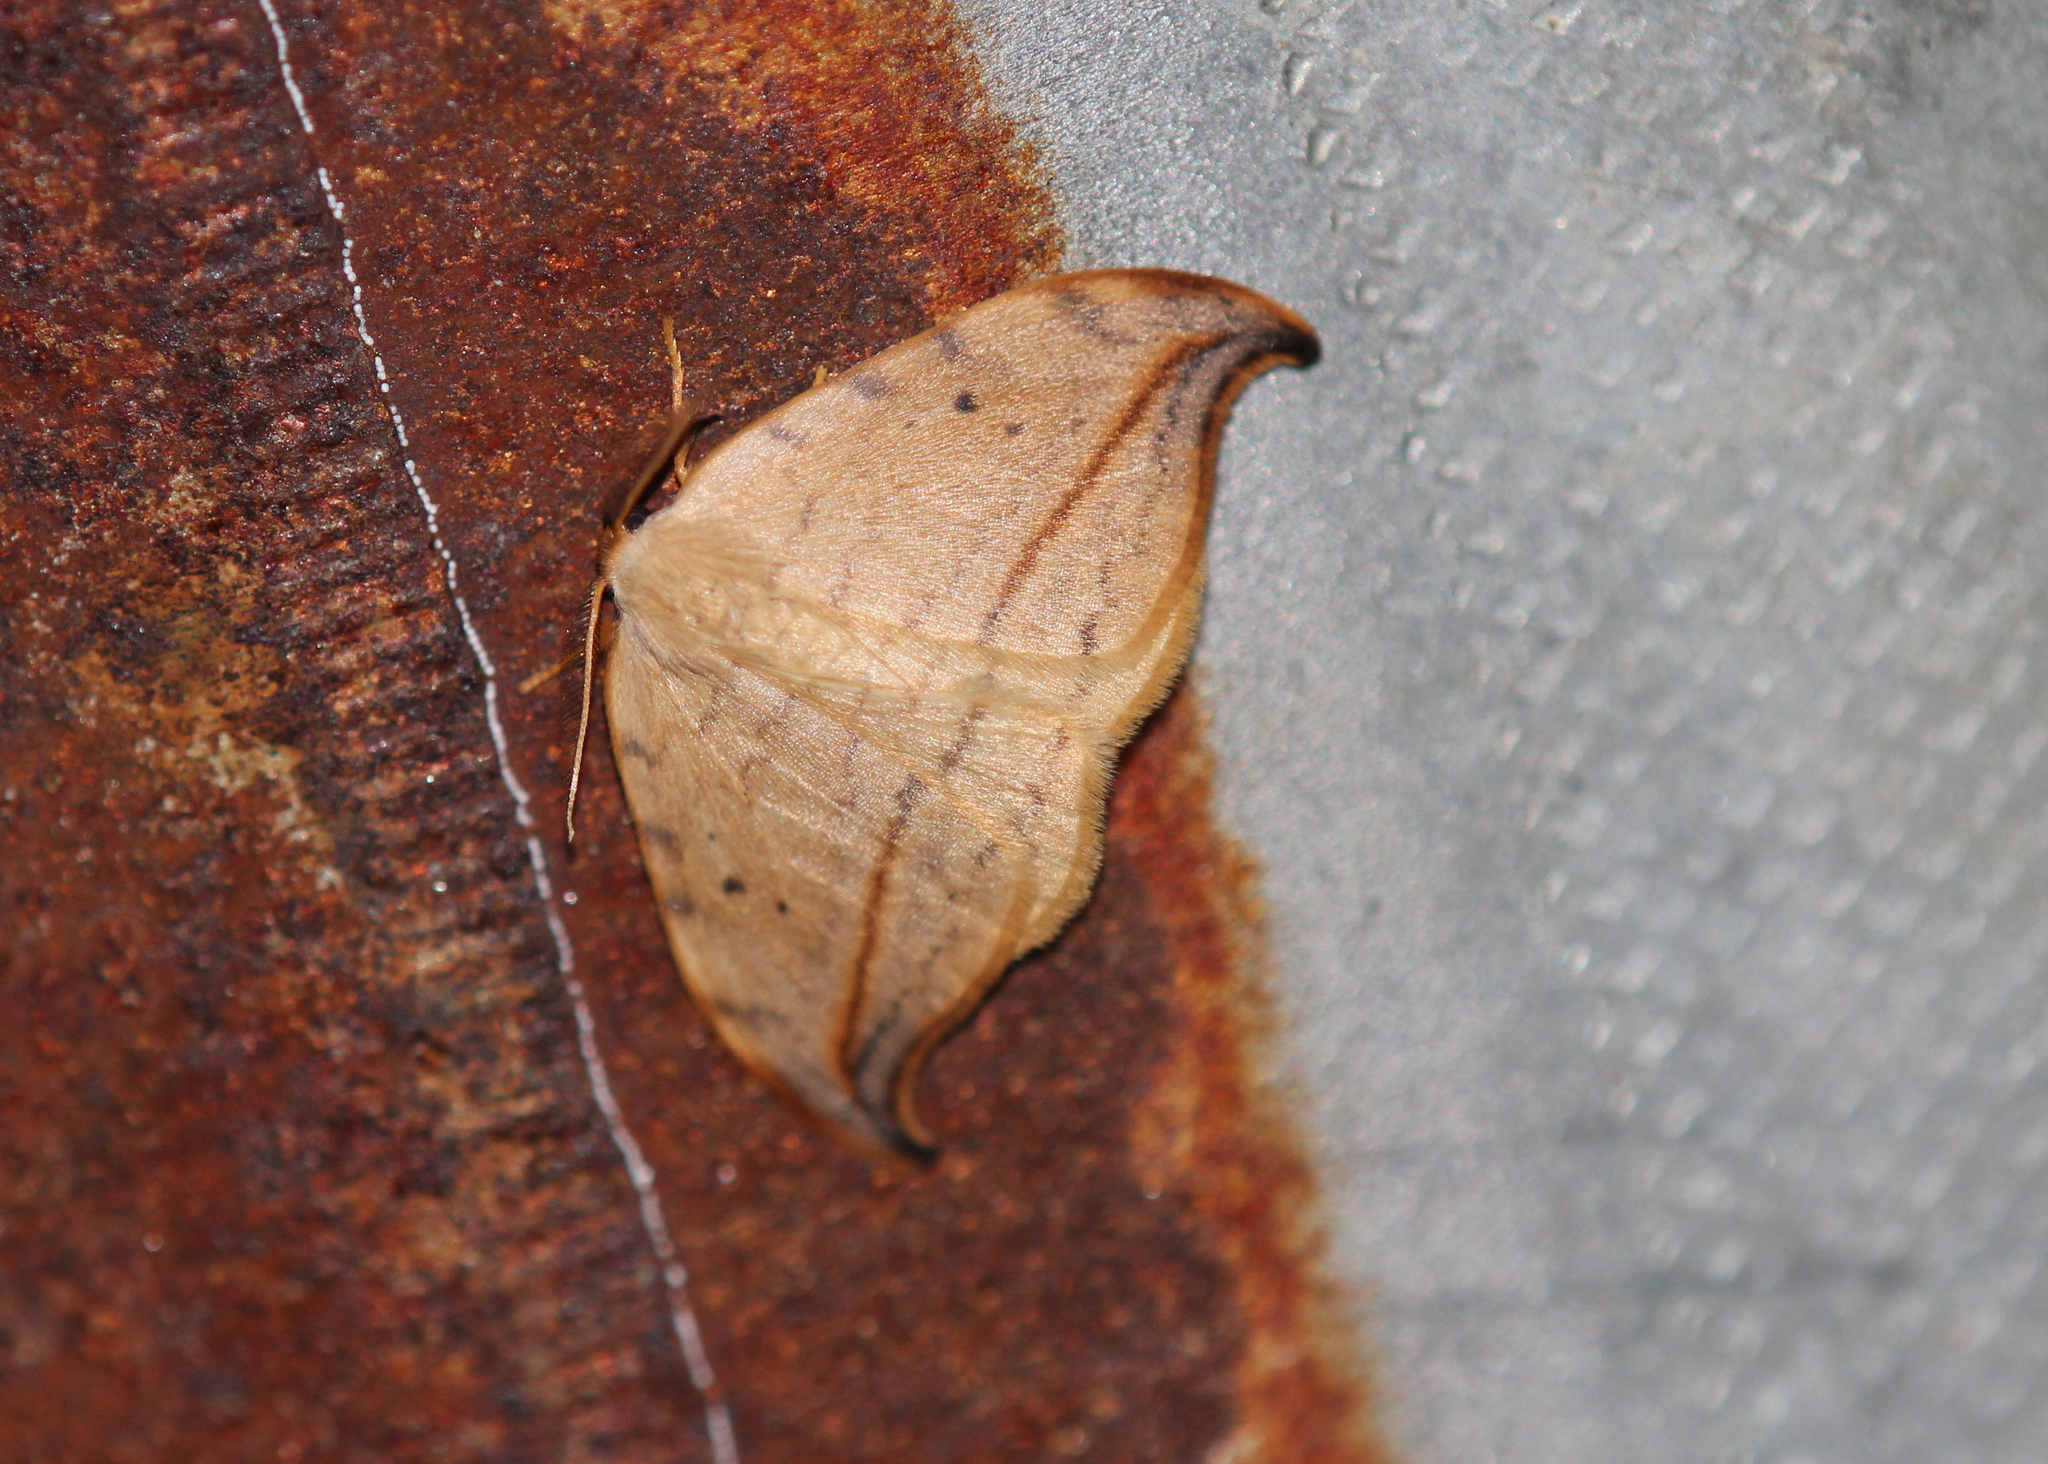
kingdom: Animalia
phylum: Arthropoda
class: Insecta
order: Lepidoptera
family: Drepanidae
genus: Drepana
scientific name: Drepana arcuata
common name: Arched hooktip moth
